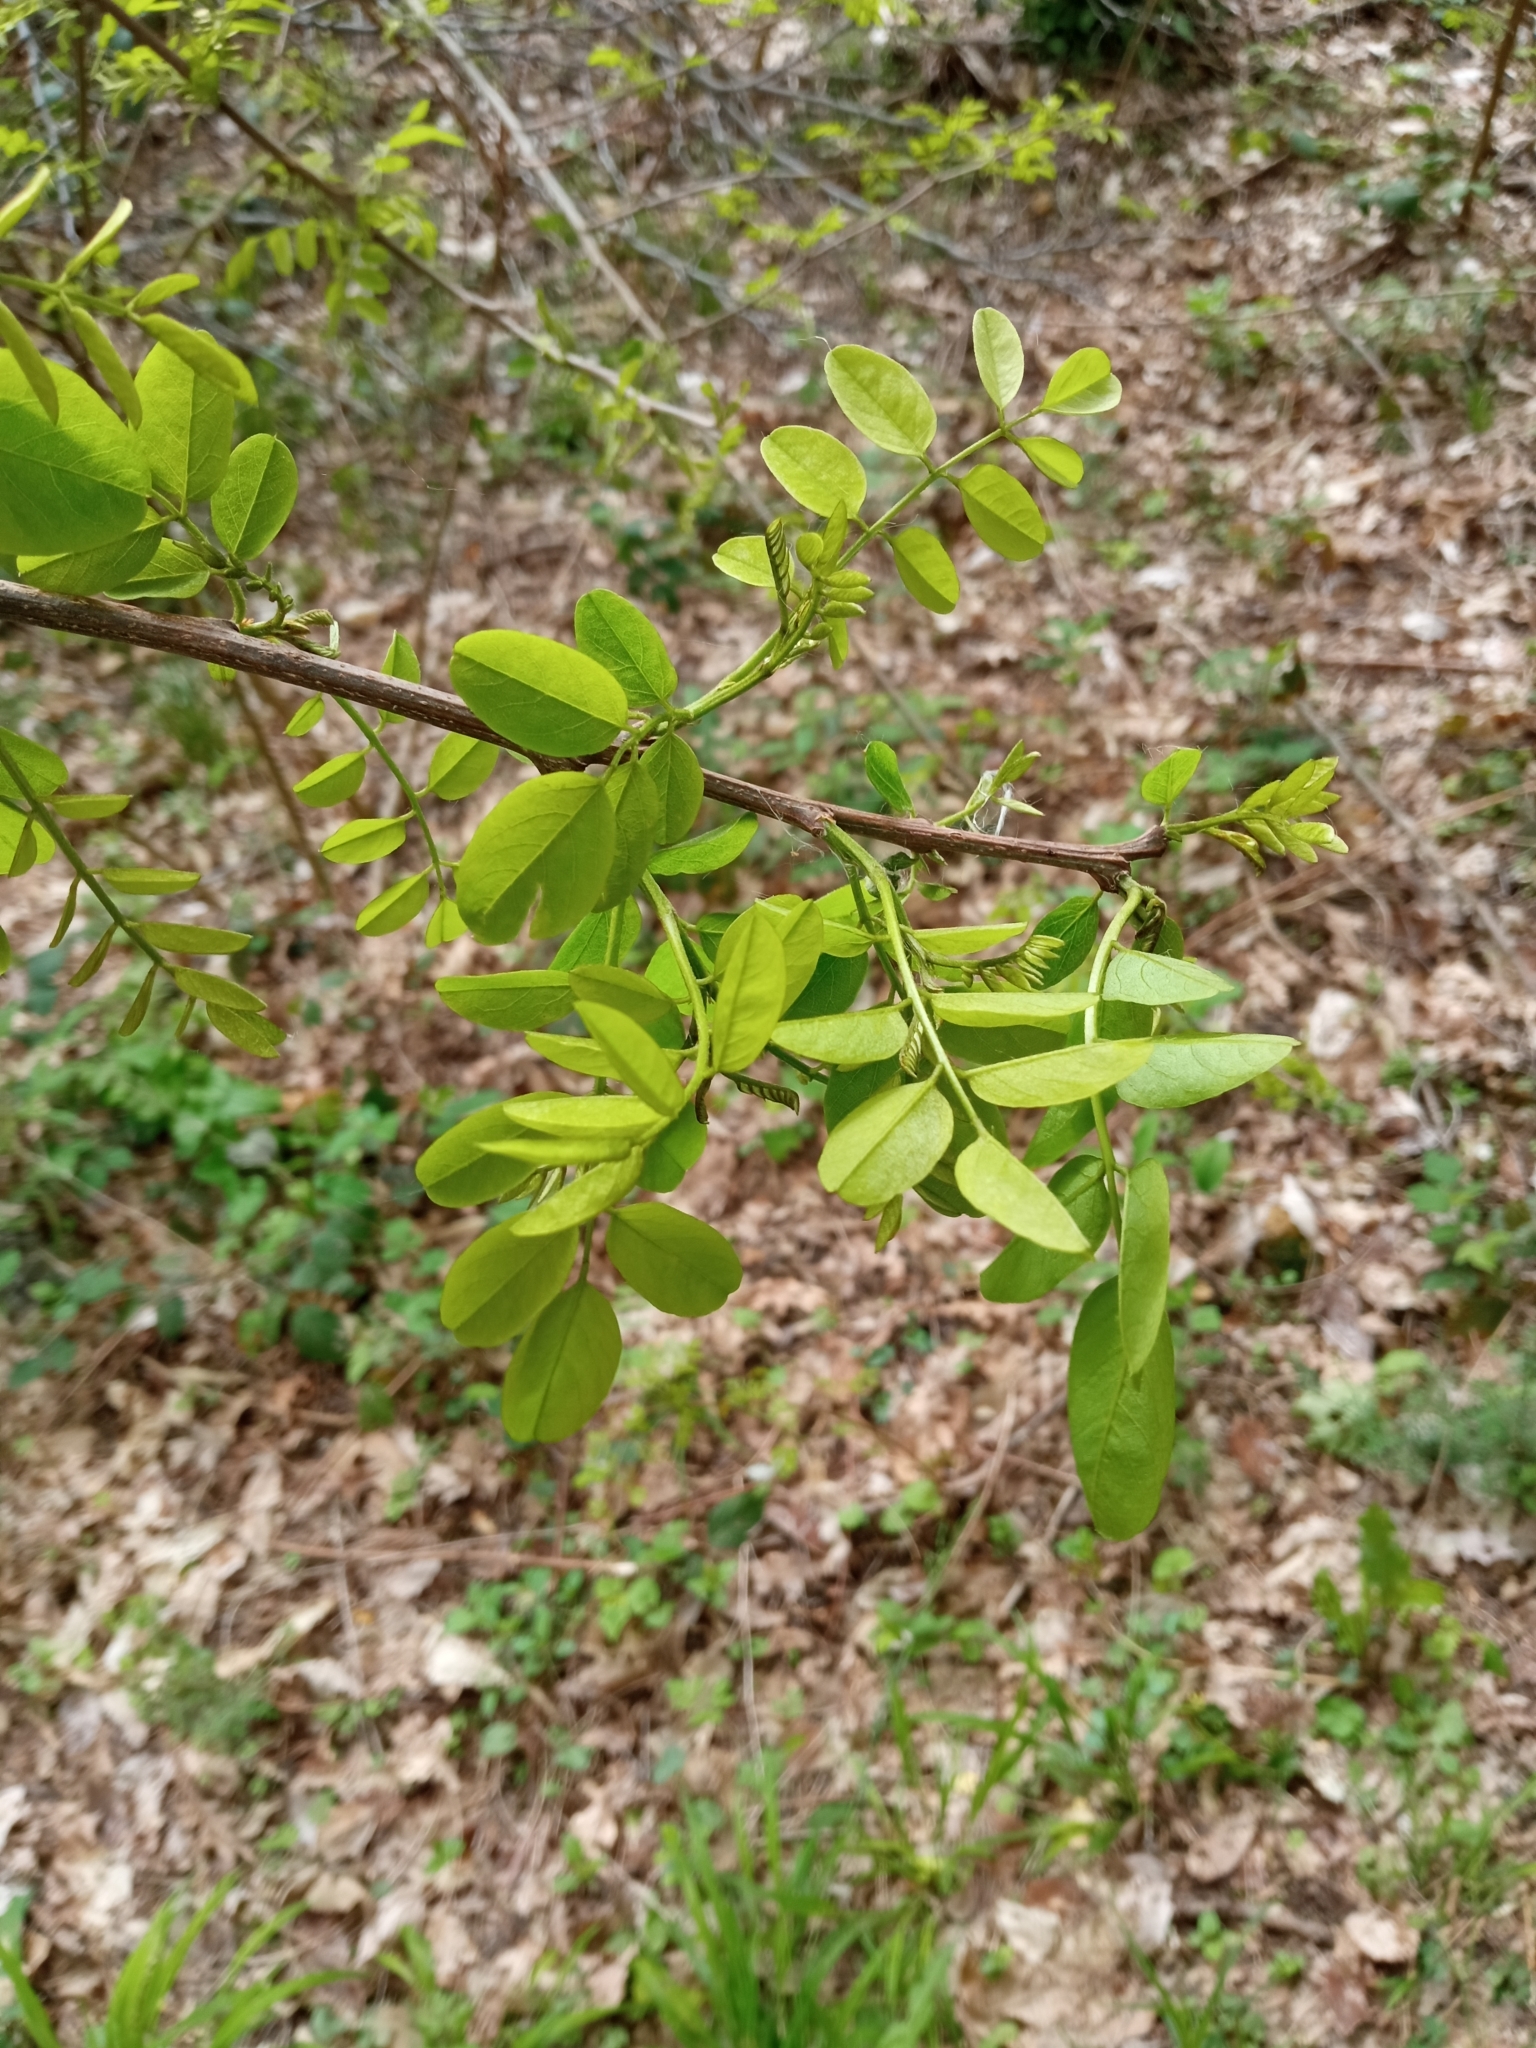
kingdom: Plantae
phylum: Tracheophyta
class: Magnoliopsida
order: Fabales
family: Fabaceae
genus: Robinia
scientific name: Robinia pseudoacacia
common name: Black locust
